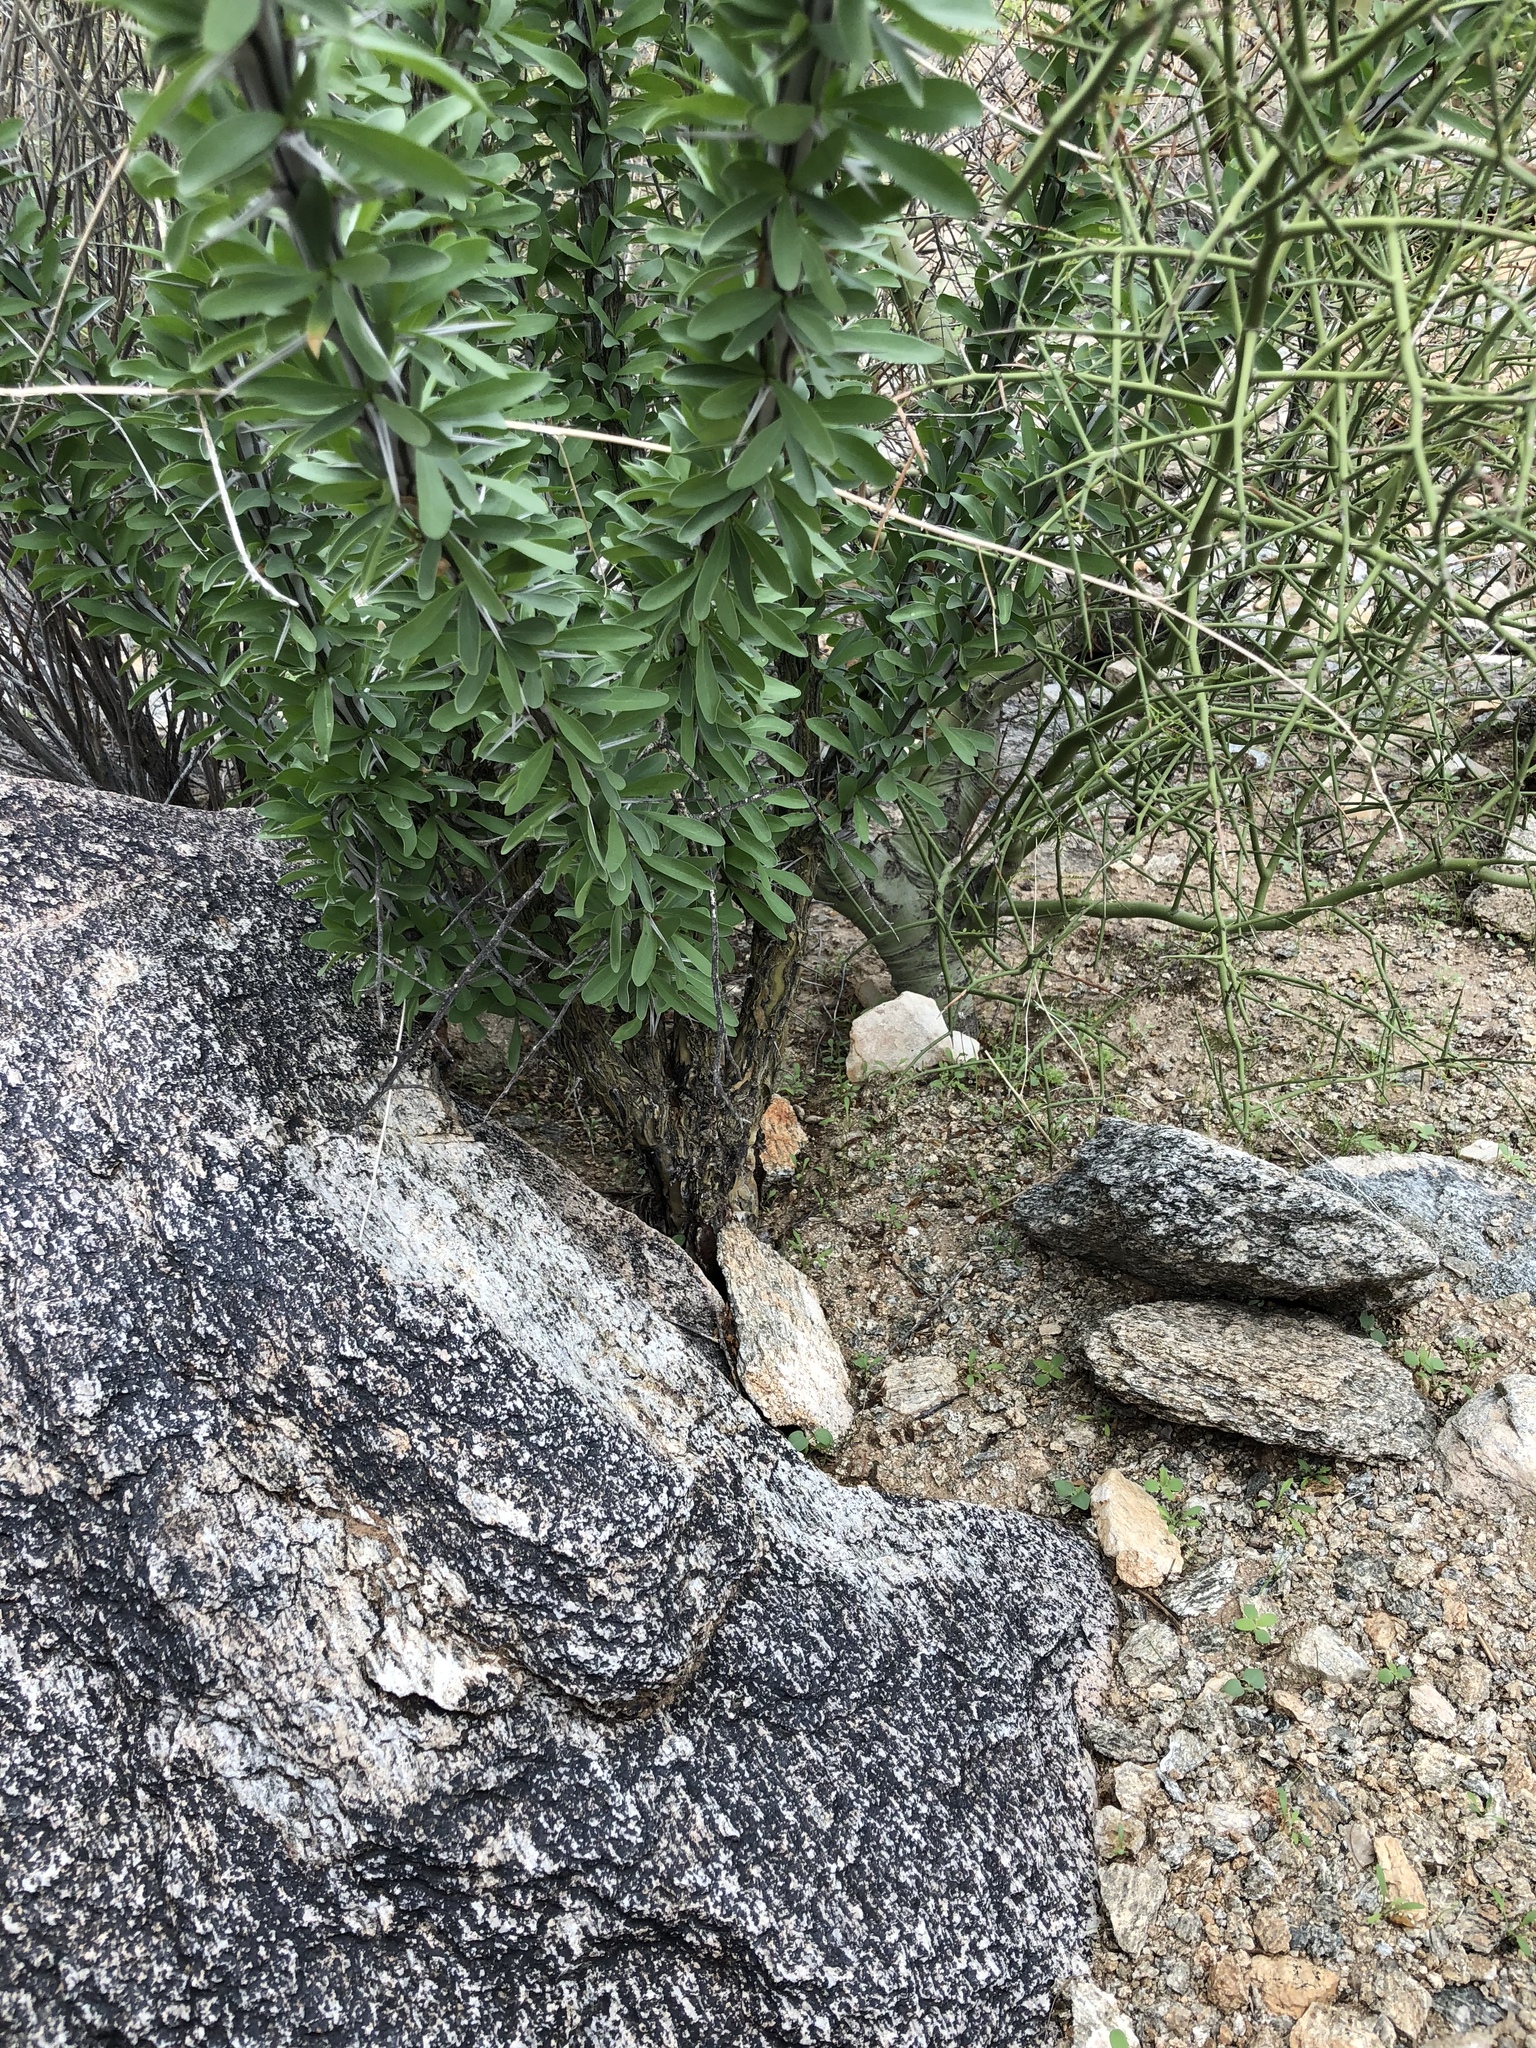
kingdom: Plantae
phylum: Tracheophyta
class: Magnoliopsida
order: Ericales
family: Fouquieriaceae
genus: Fouquieria
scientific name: Fouquieria splendens
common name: Vine-cactus
